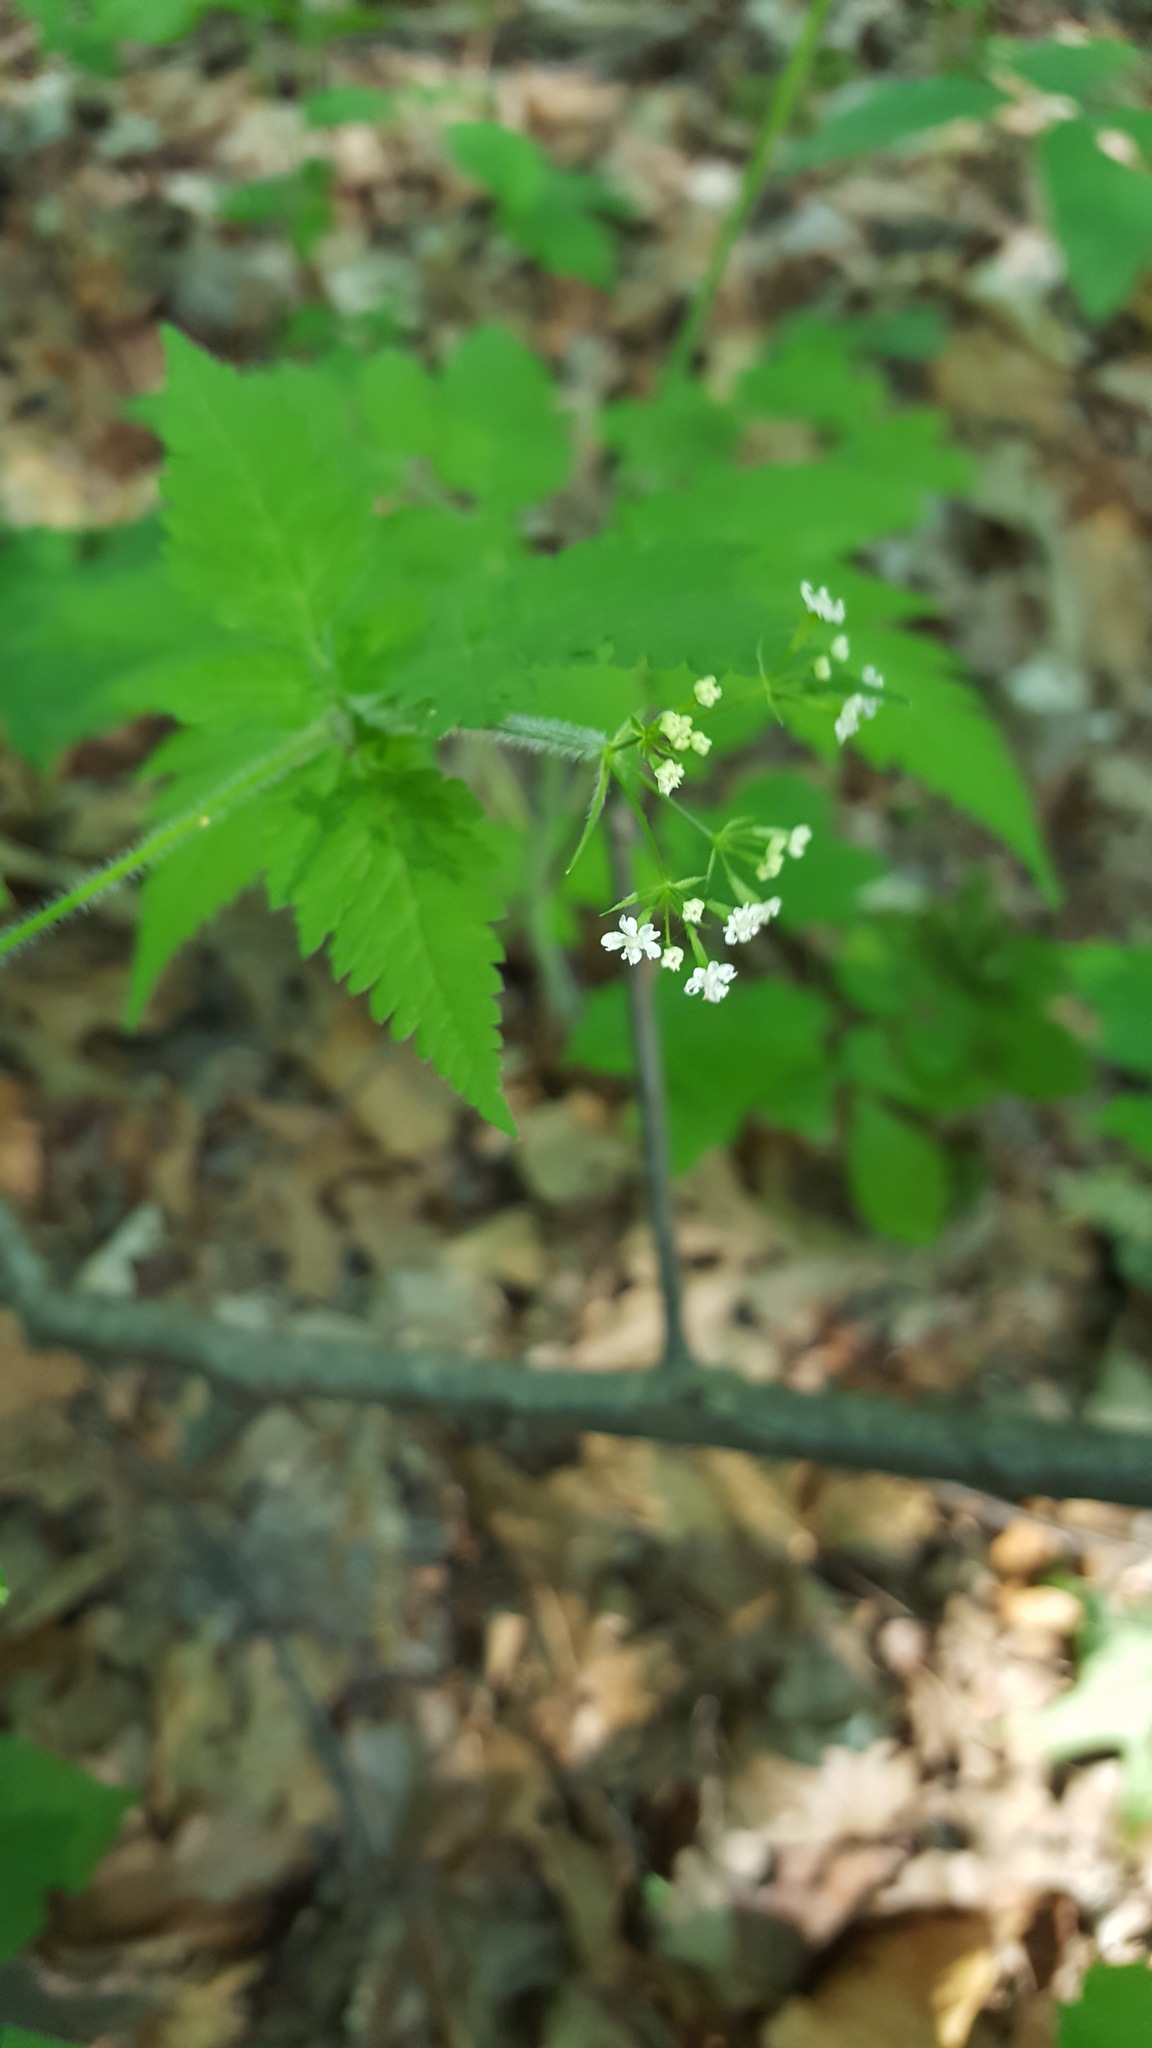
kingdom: Plantae
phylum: Tracheophyta
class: Magnoliopsida
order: Apiales
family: Apiaceae
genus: Osmorhiza
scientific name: Osmorhiza claytonii
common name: Hairy sweet cicely
